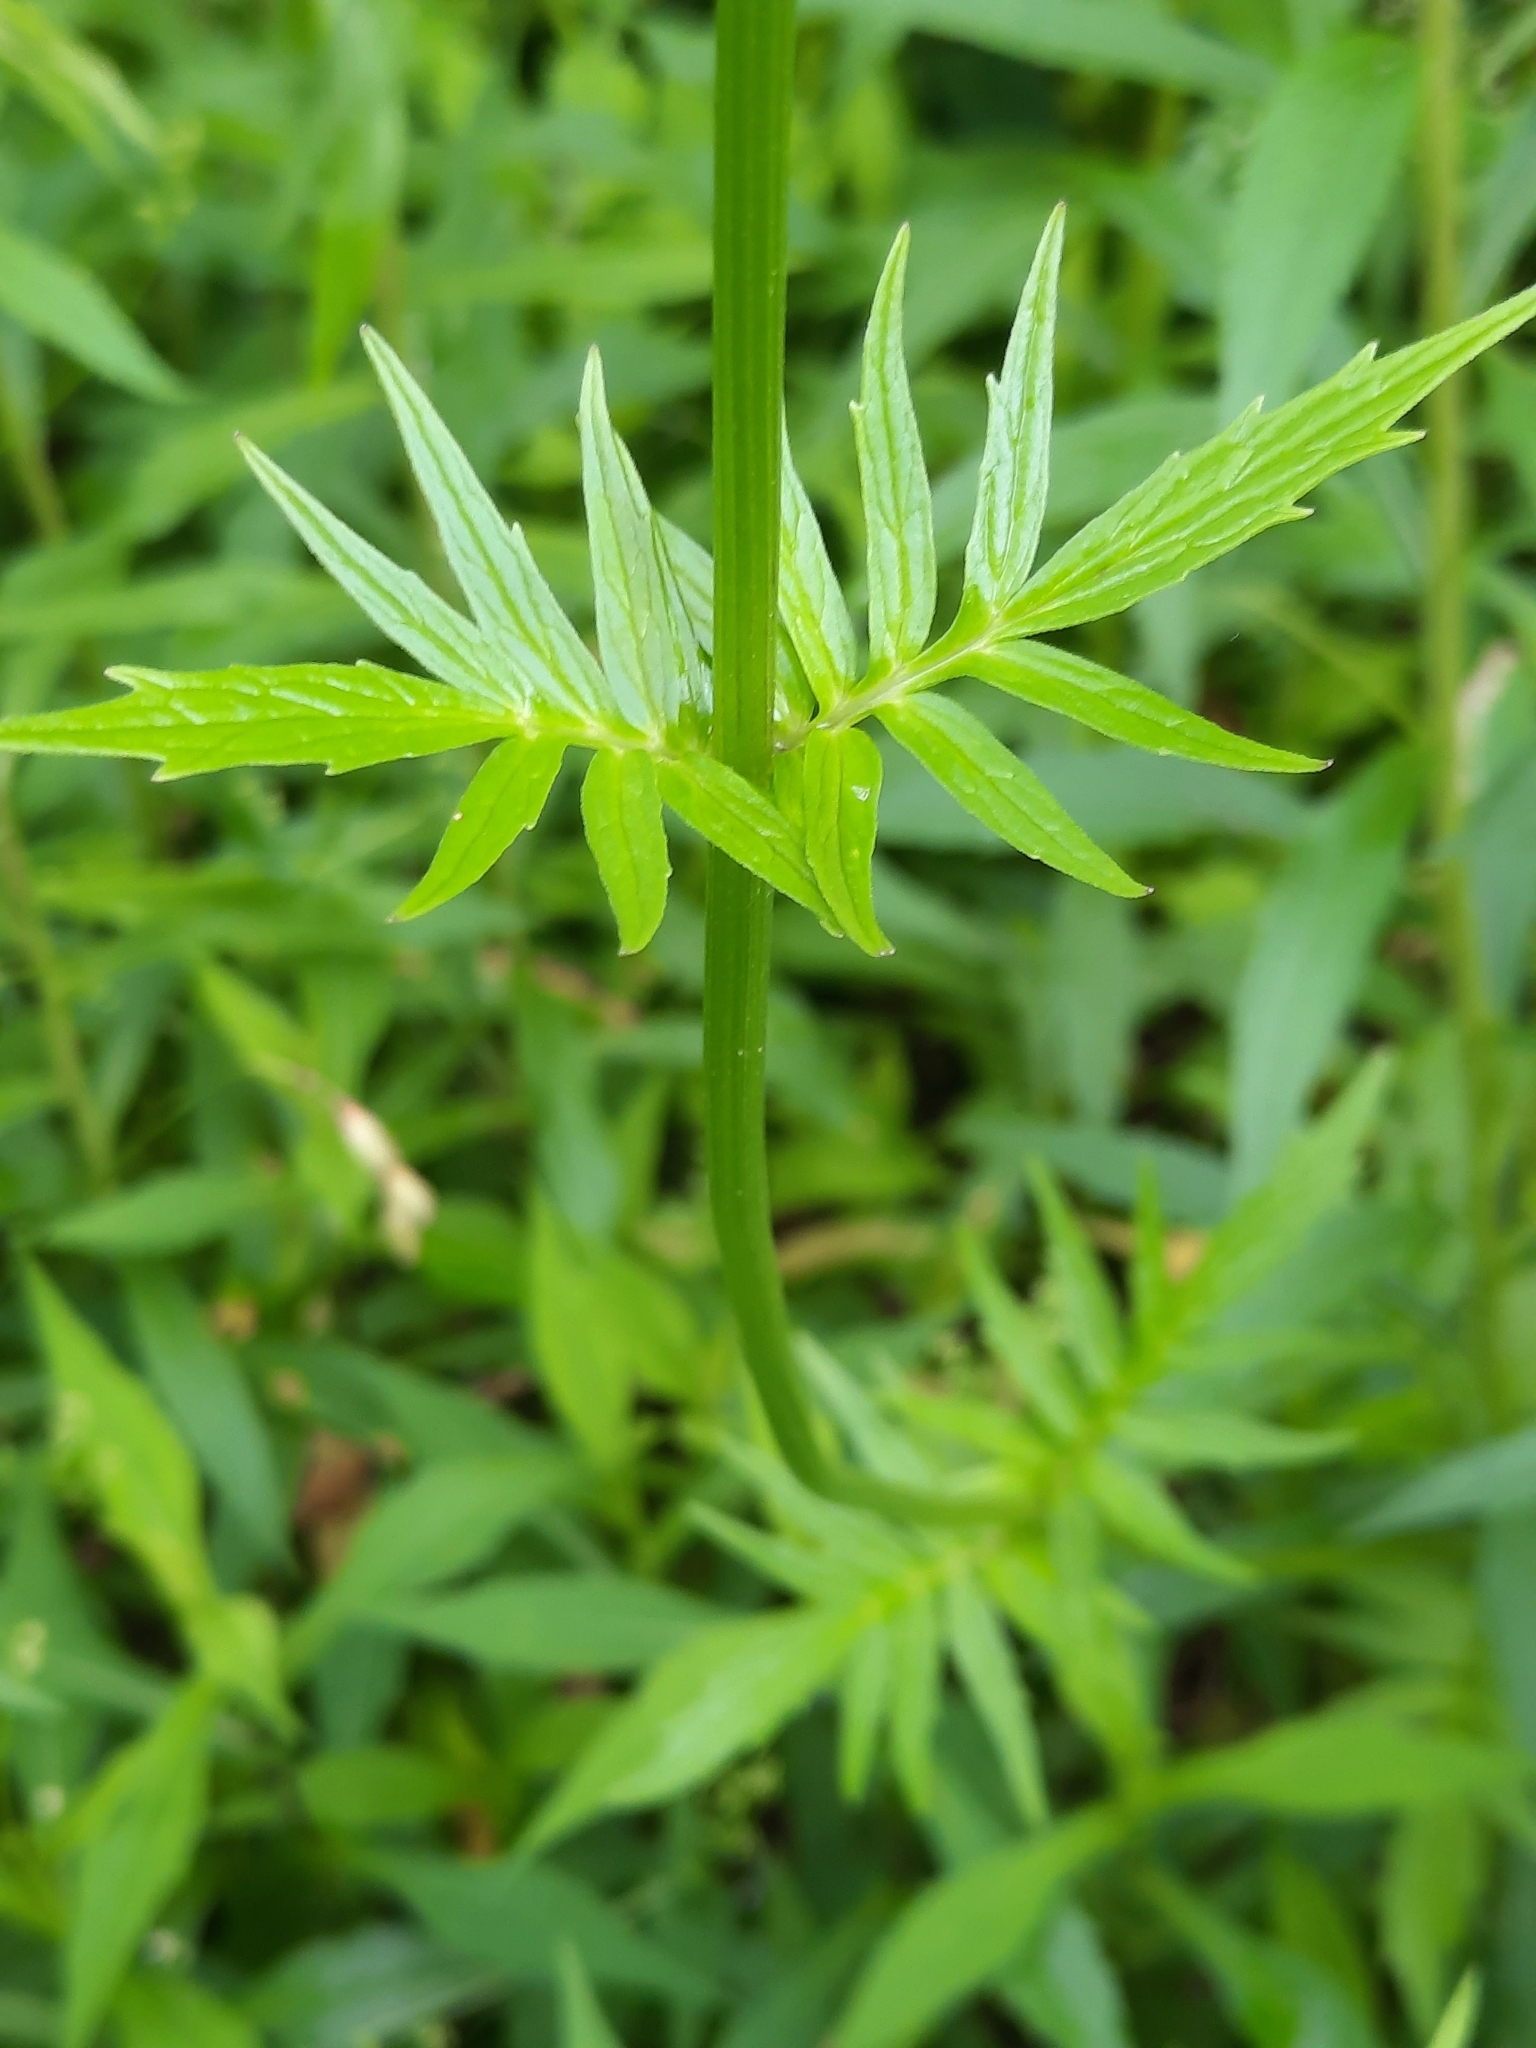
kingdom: Plantae
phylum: Tracheophyta
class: Magnoliopsida
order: Dipsacales
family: Caprifoliaceae
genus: Valeriana
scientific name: Valeriana officinalis
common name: Common valerian
